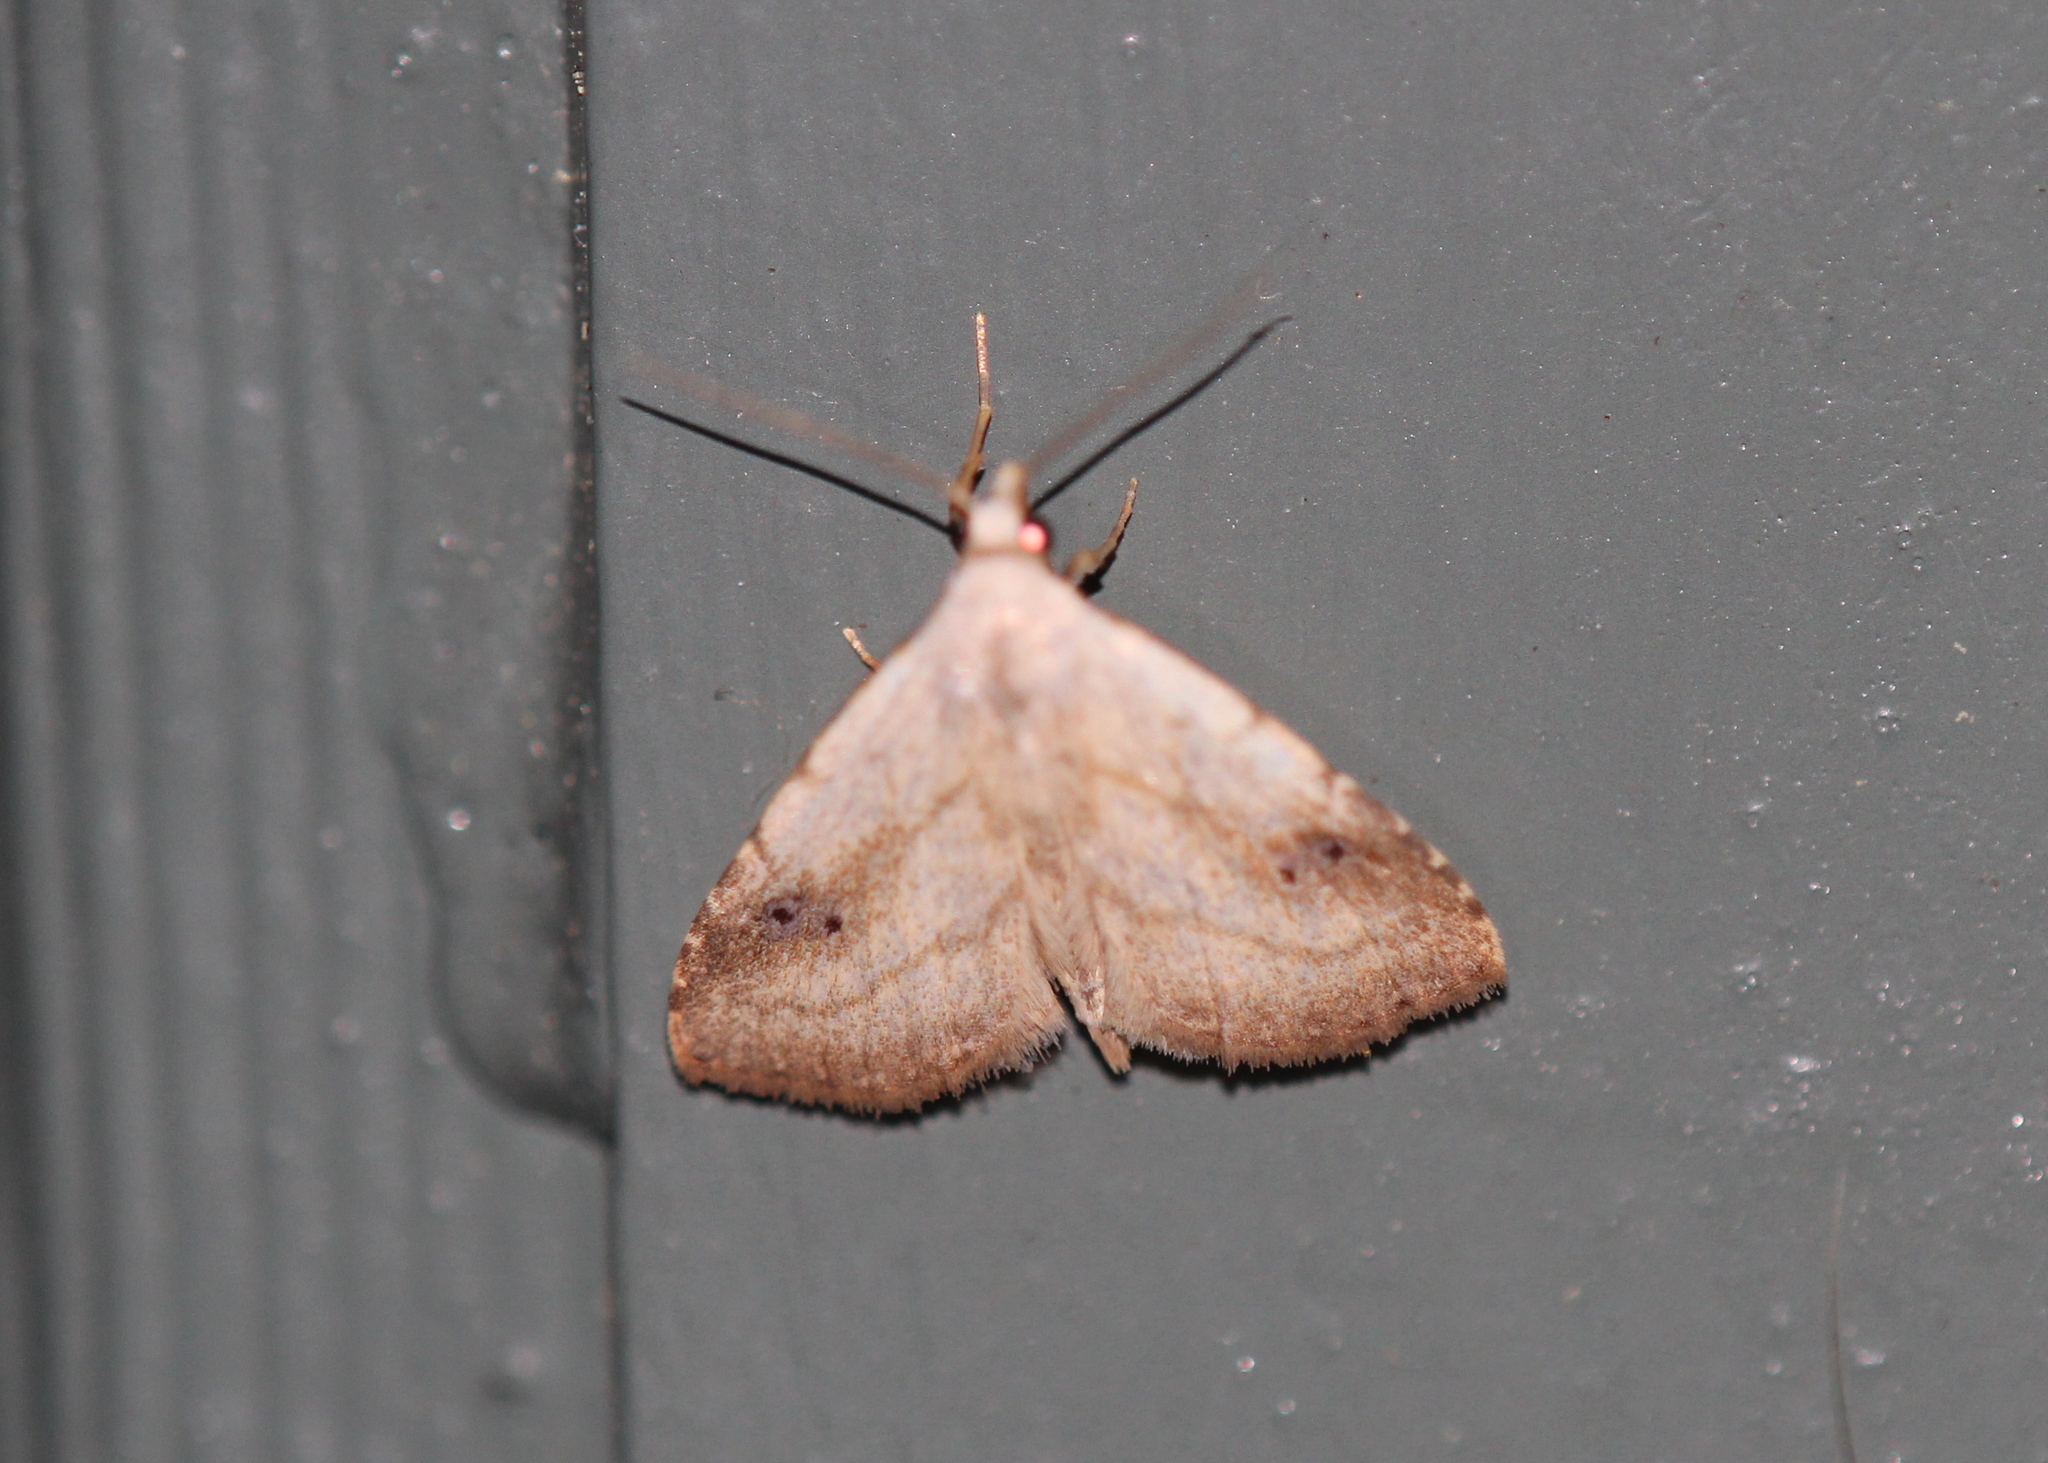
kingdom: Animalia
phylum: Arthropoda
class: Insecta
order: Lepidoptera
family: Erebidae
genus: Rivula
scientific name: Rivula propinqualis
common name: Spotted grass moth
